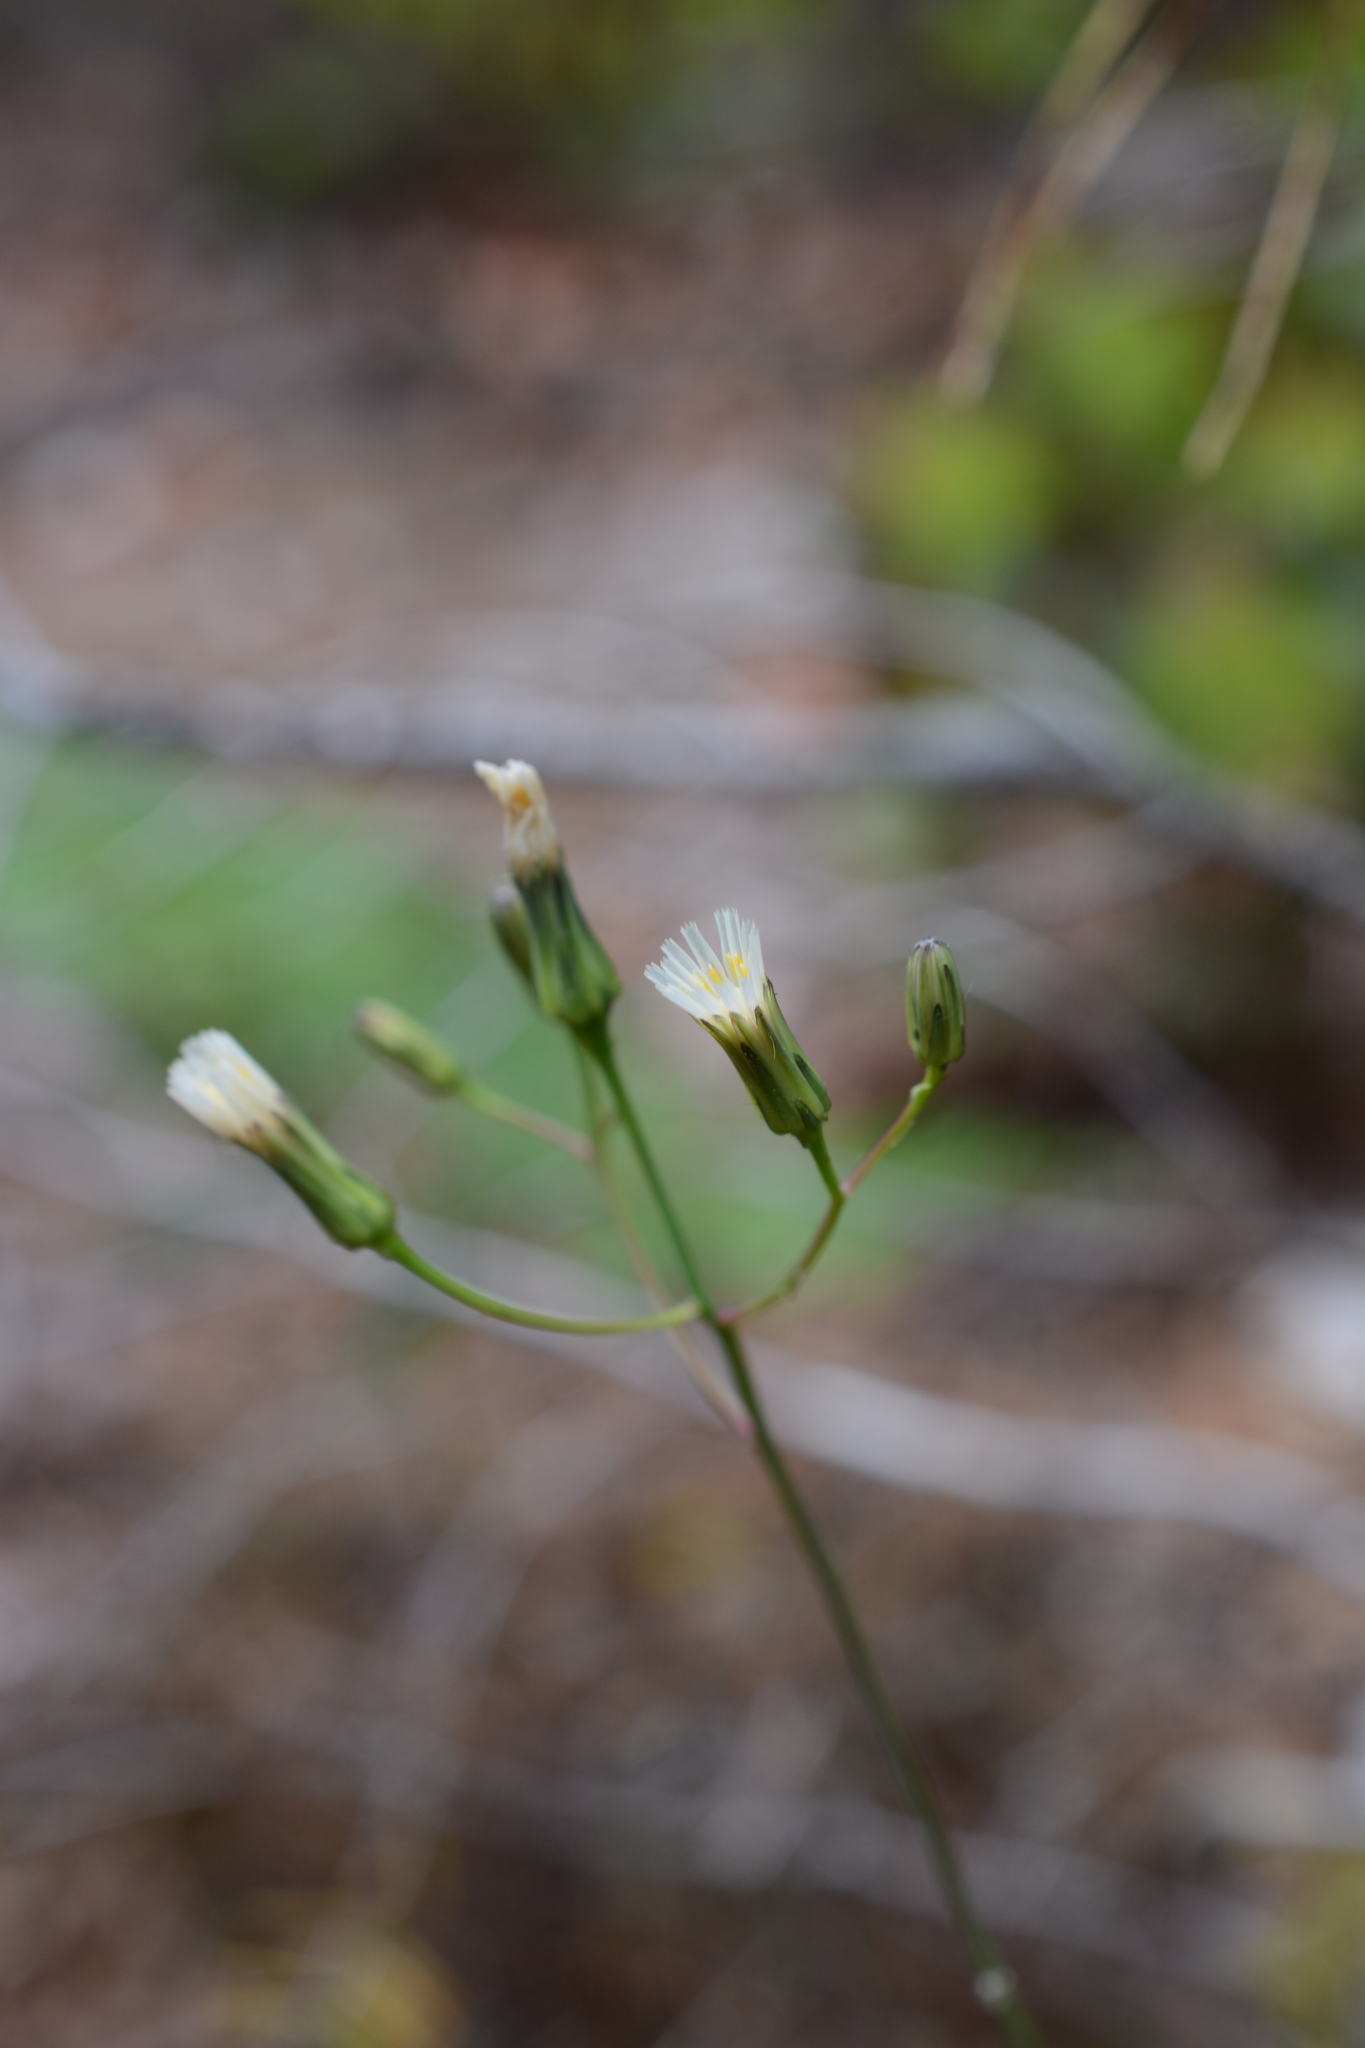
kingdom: Plantae
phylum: Tracheophyta
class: Magnoliopsida
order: Asterales
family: Asteraceae
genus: Hieracium
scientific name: Hieracium albiflorum
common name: White hawkweed
